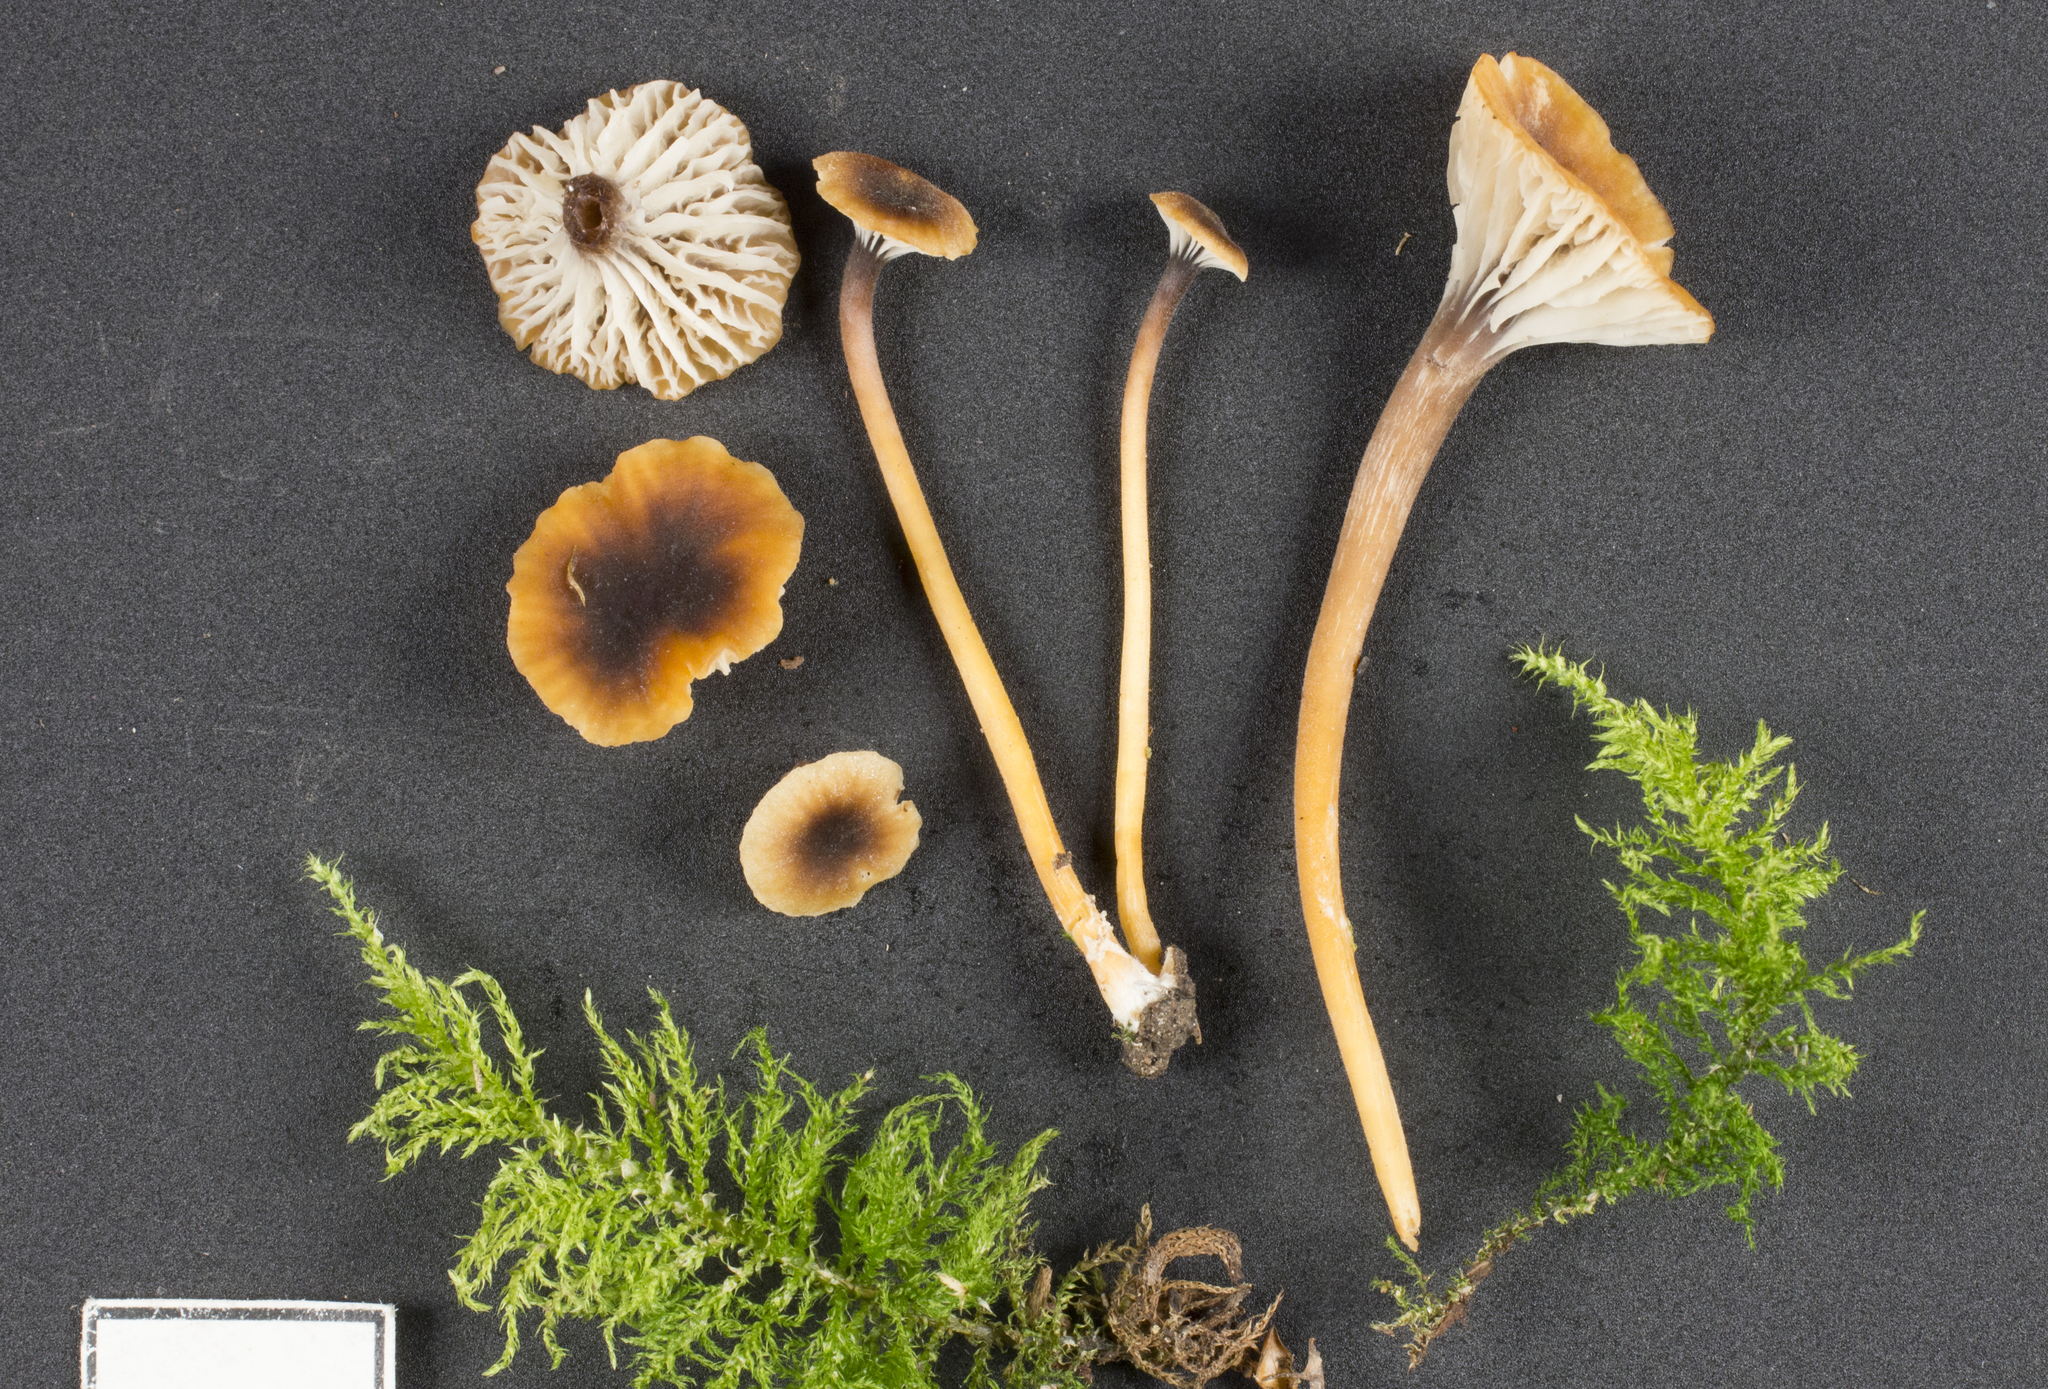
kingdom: Fungi
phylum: Basidiomycota
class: Agaricomycetes
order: Hymenochaetales
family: Rickenellaceae
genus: Rickenella
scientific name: Rickenella swartzii
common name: Collared mosscap
